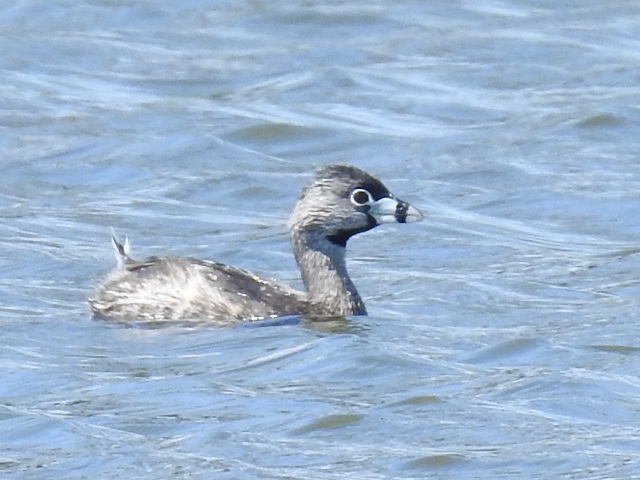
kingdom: Animalia
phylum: Chordata
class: Aves
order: Podicipediformes
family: Podicipedidae
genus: Podilymbus
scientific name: Podilymbus podiceps
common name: Pied-billed grebe
